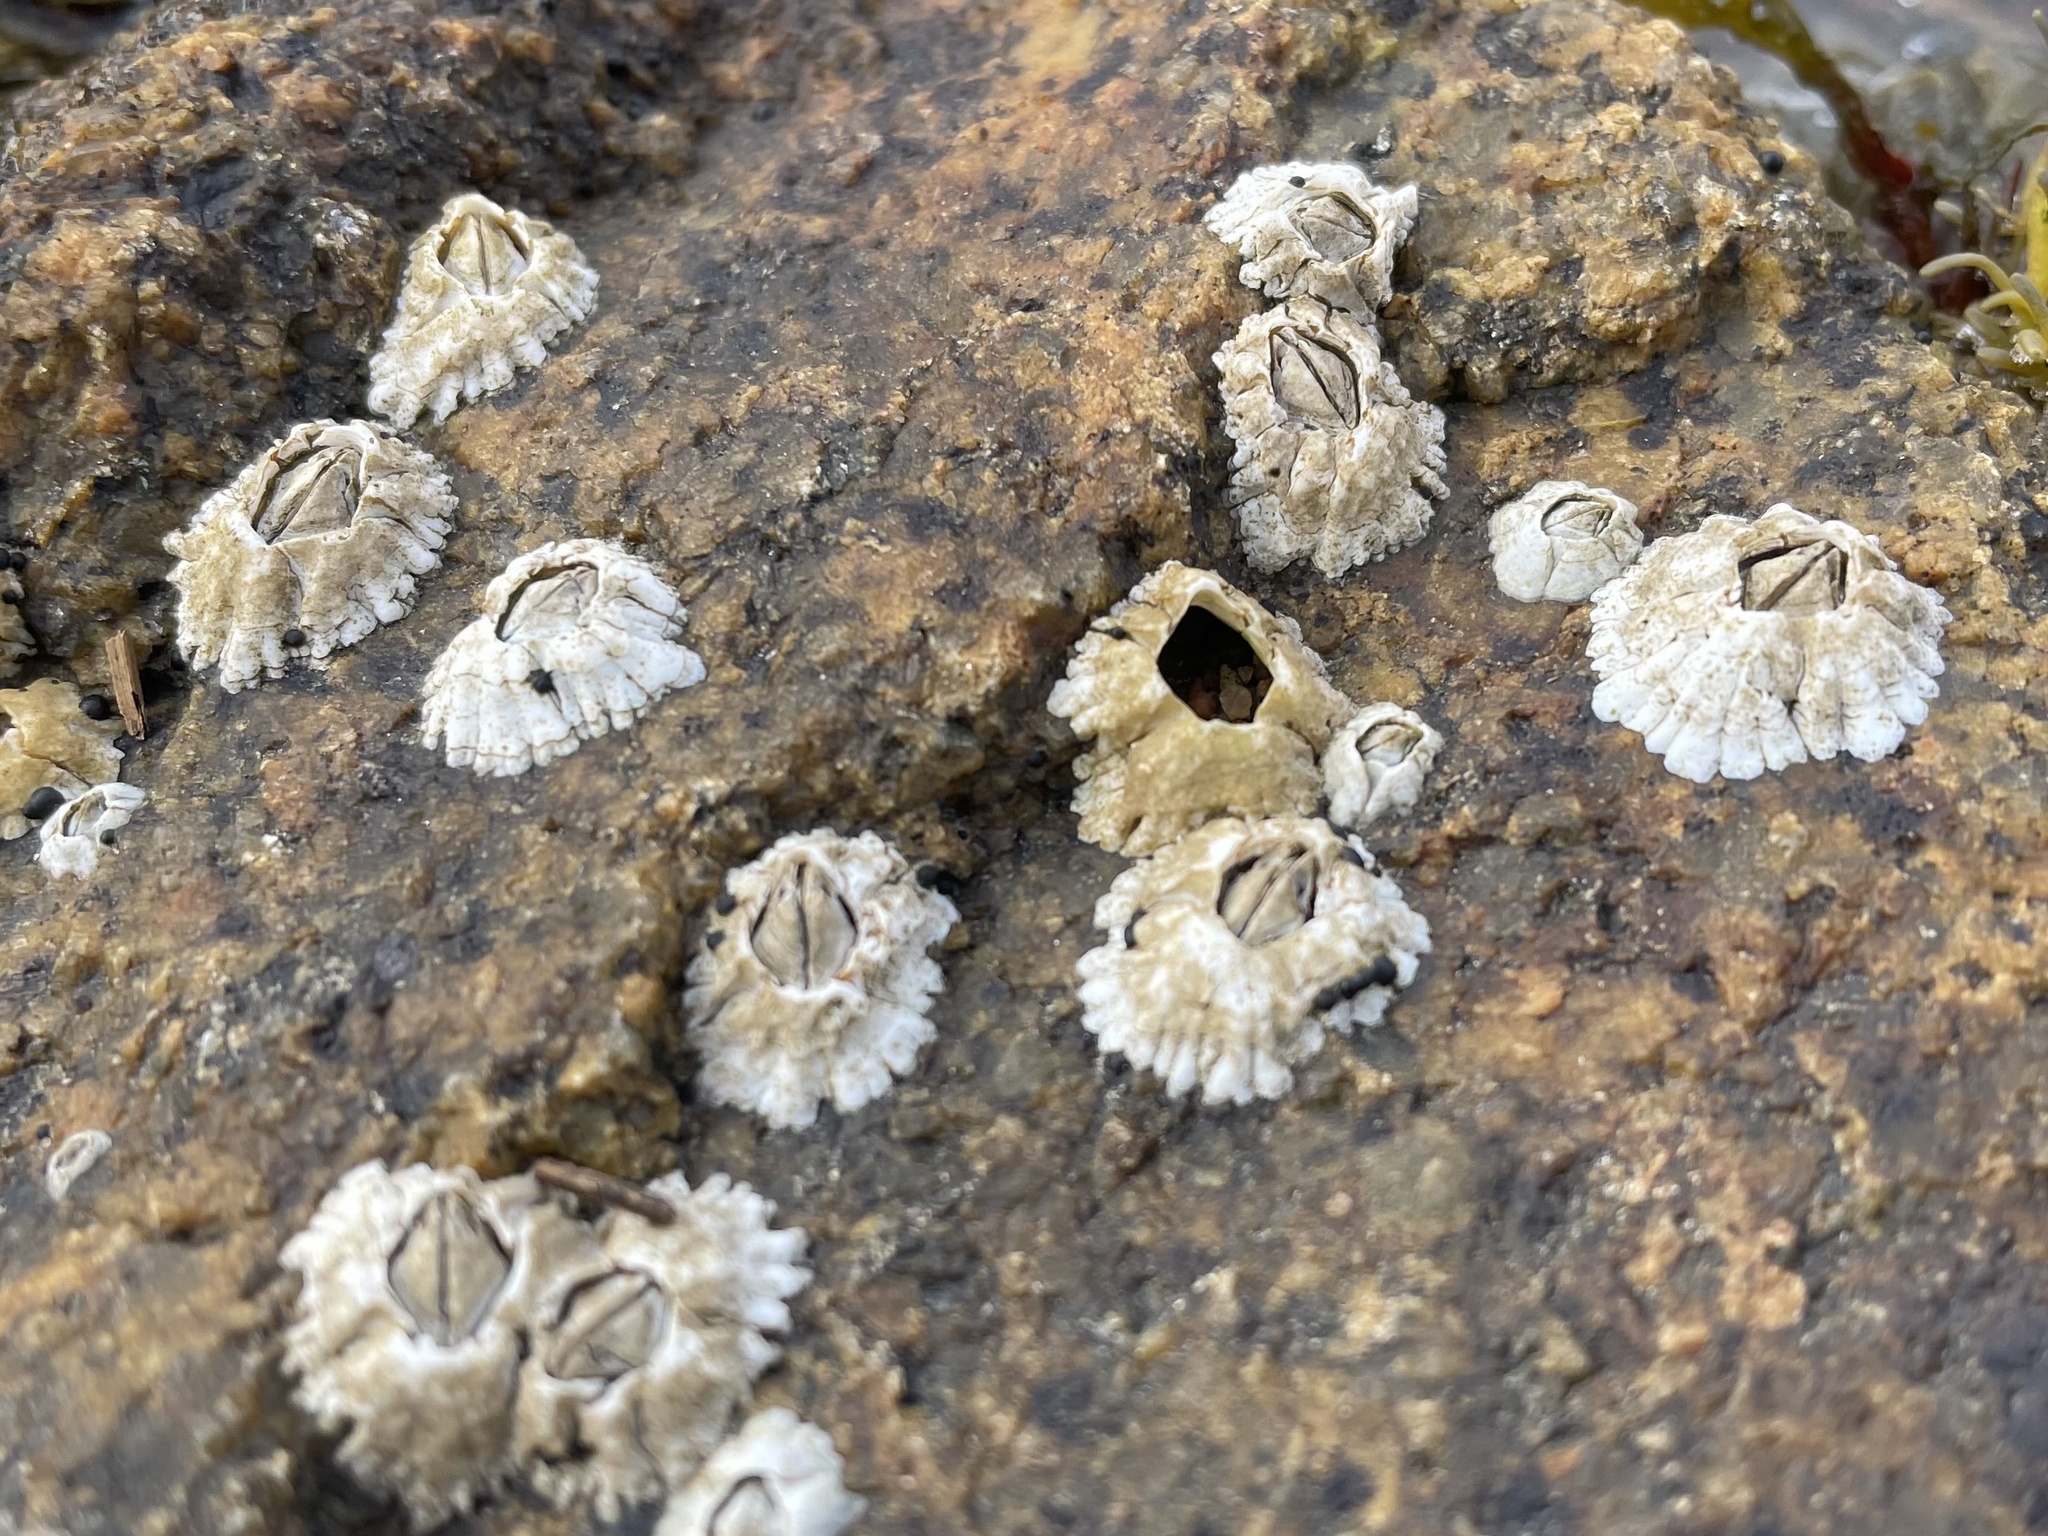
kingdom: Animalia
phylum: Arthropoda
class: Maxillopoda
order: Sessilia
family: Archaeobalanidae
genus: Semibalanus
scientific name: Semibalanus balanoides
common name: Acorn barnacle
